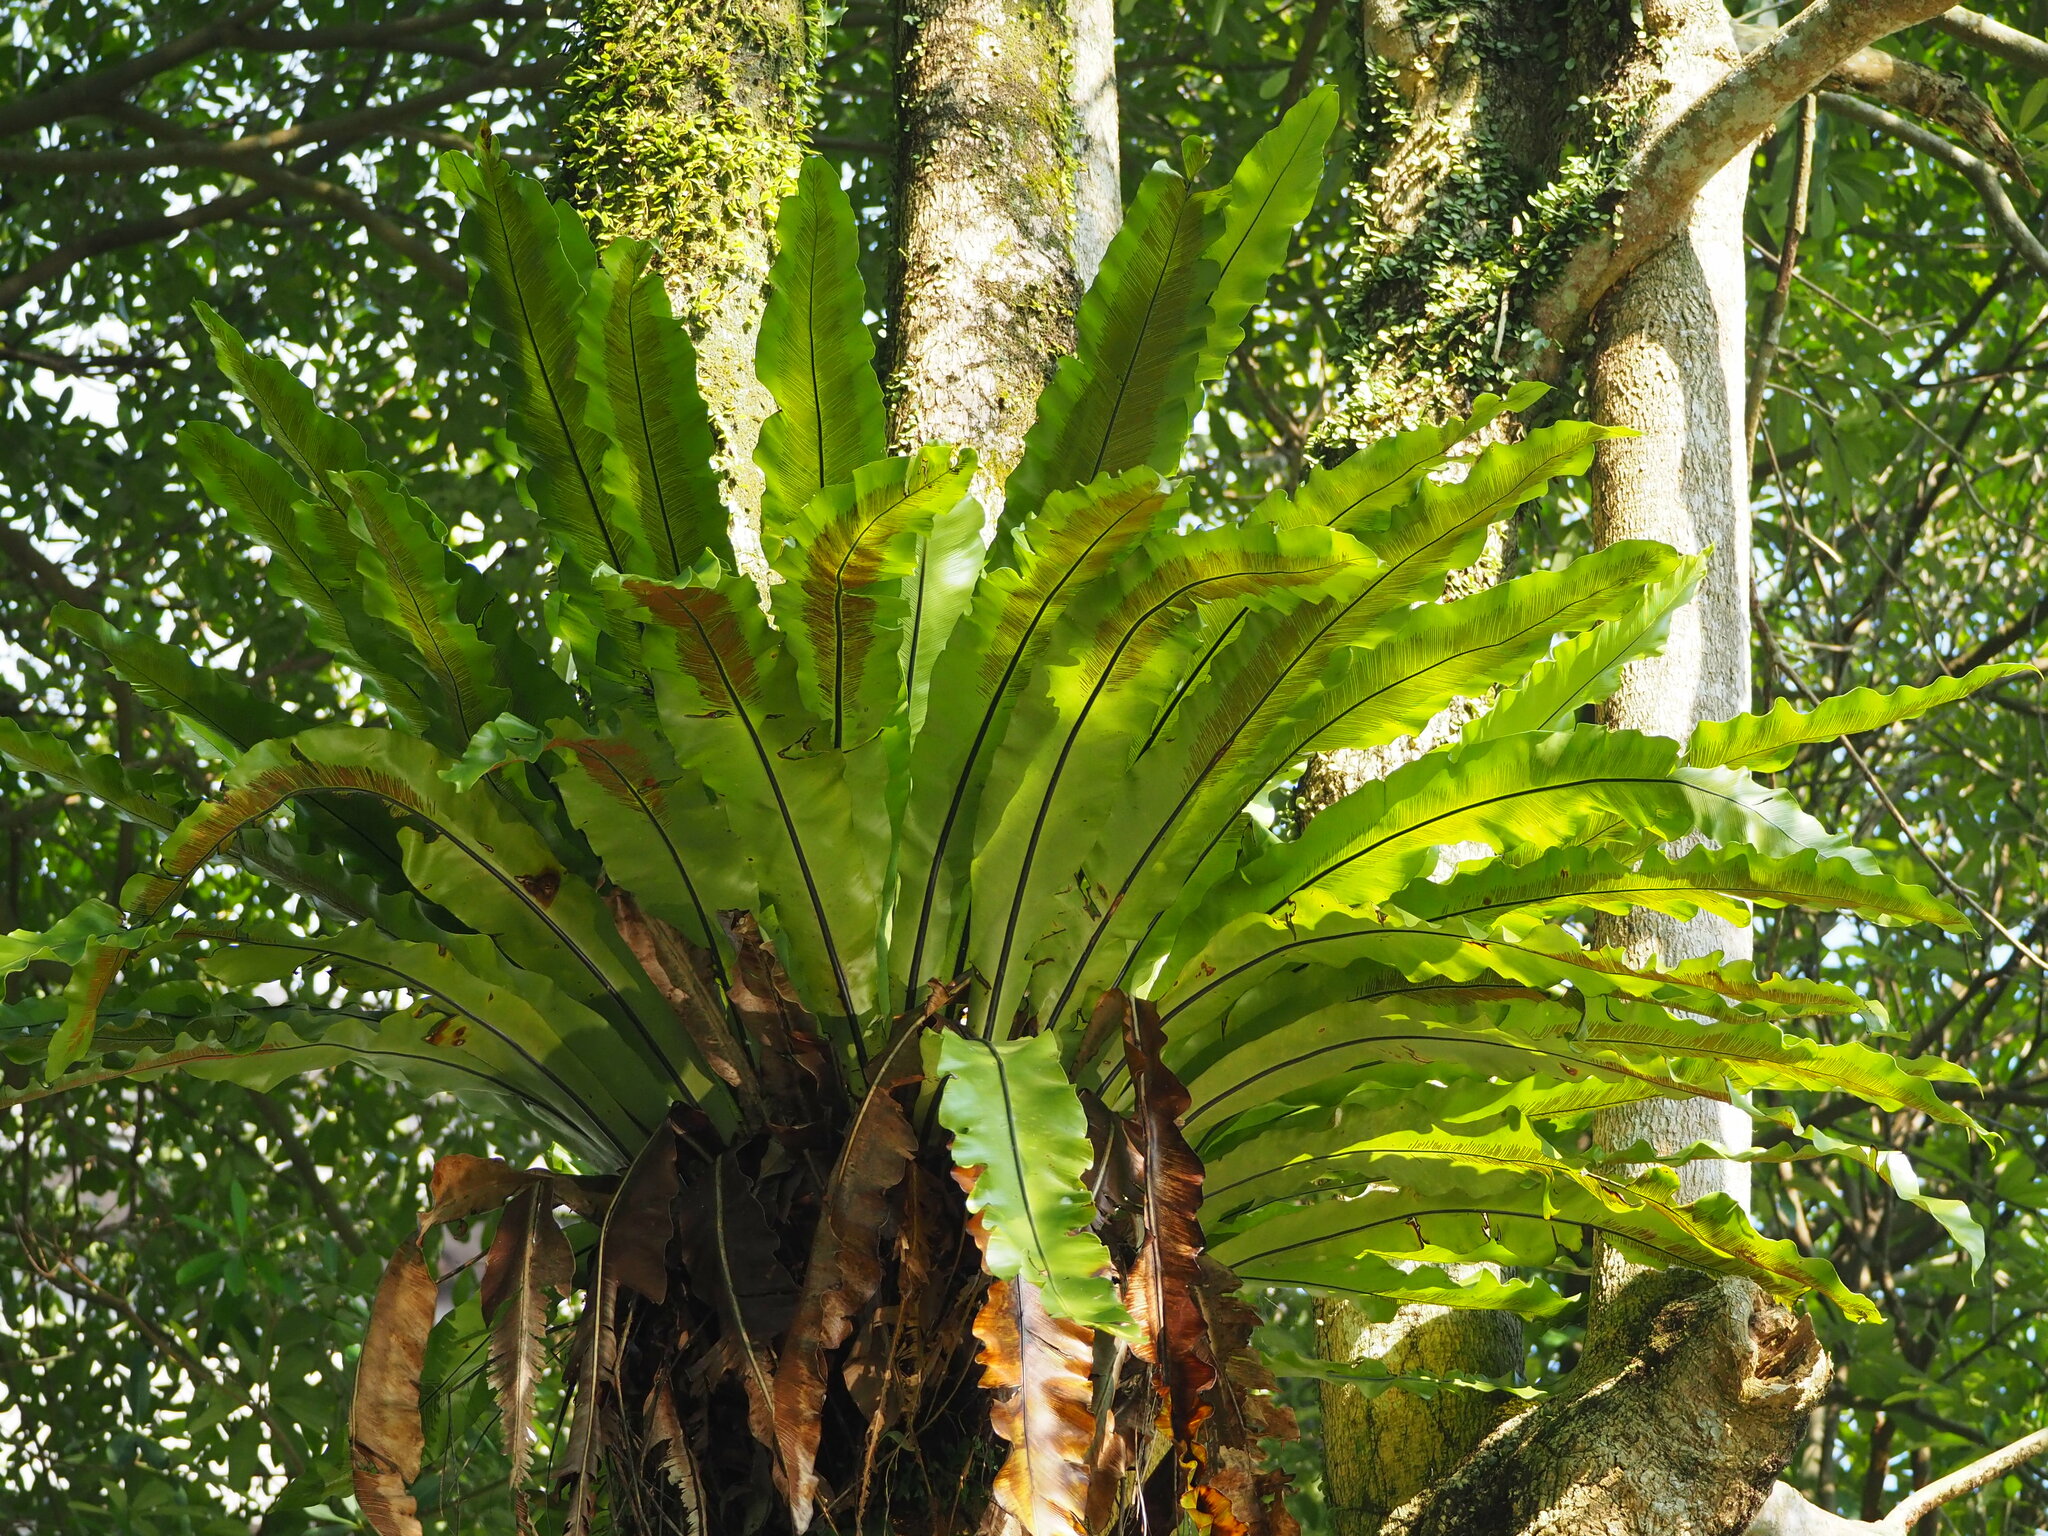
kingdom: Plantae
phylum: Tracheophyta
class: Polypodiopsida
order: Polypodiales
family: Aspleniaceae
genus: Asplenium
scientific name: Asplenium nidus
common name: Bird's-nest fern
